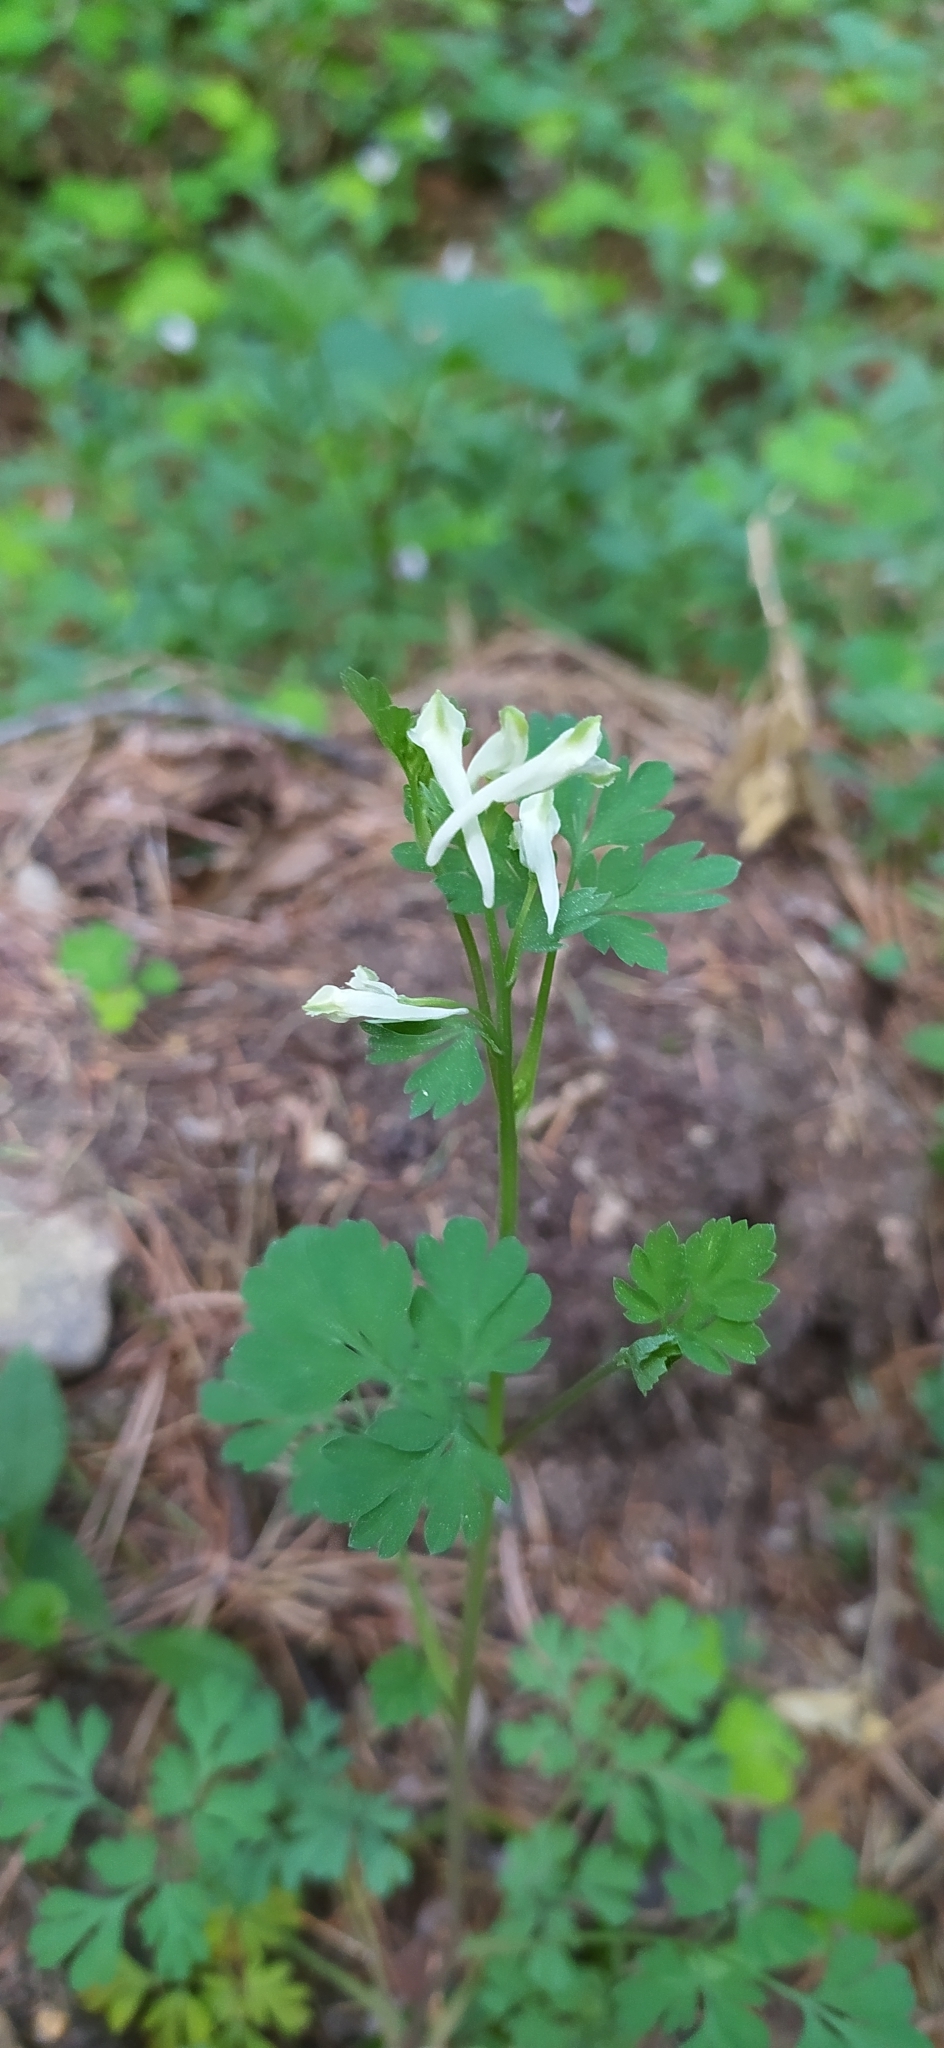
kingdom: Plantae
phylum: Tracheophyta
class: Magnoliopsida
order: Ranunculales
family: Papaveraceae
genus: Corydalis
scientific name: Corydalis capnoides
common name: Beaked corydalis
